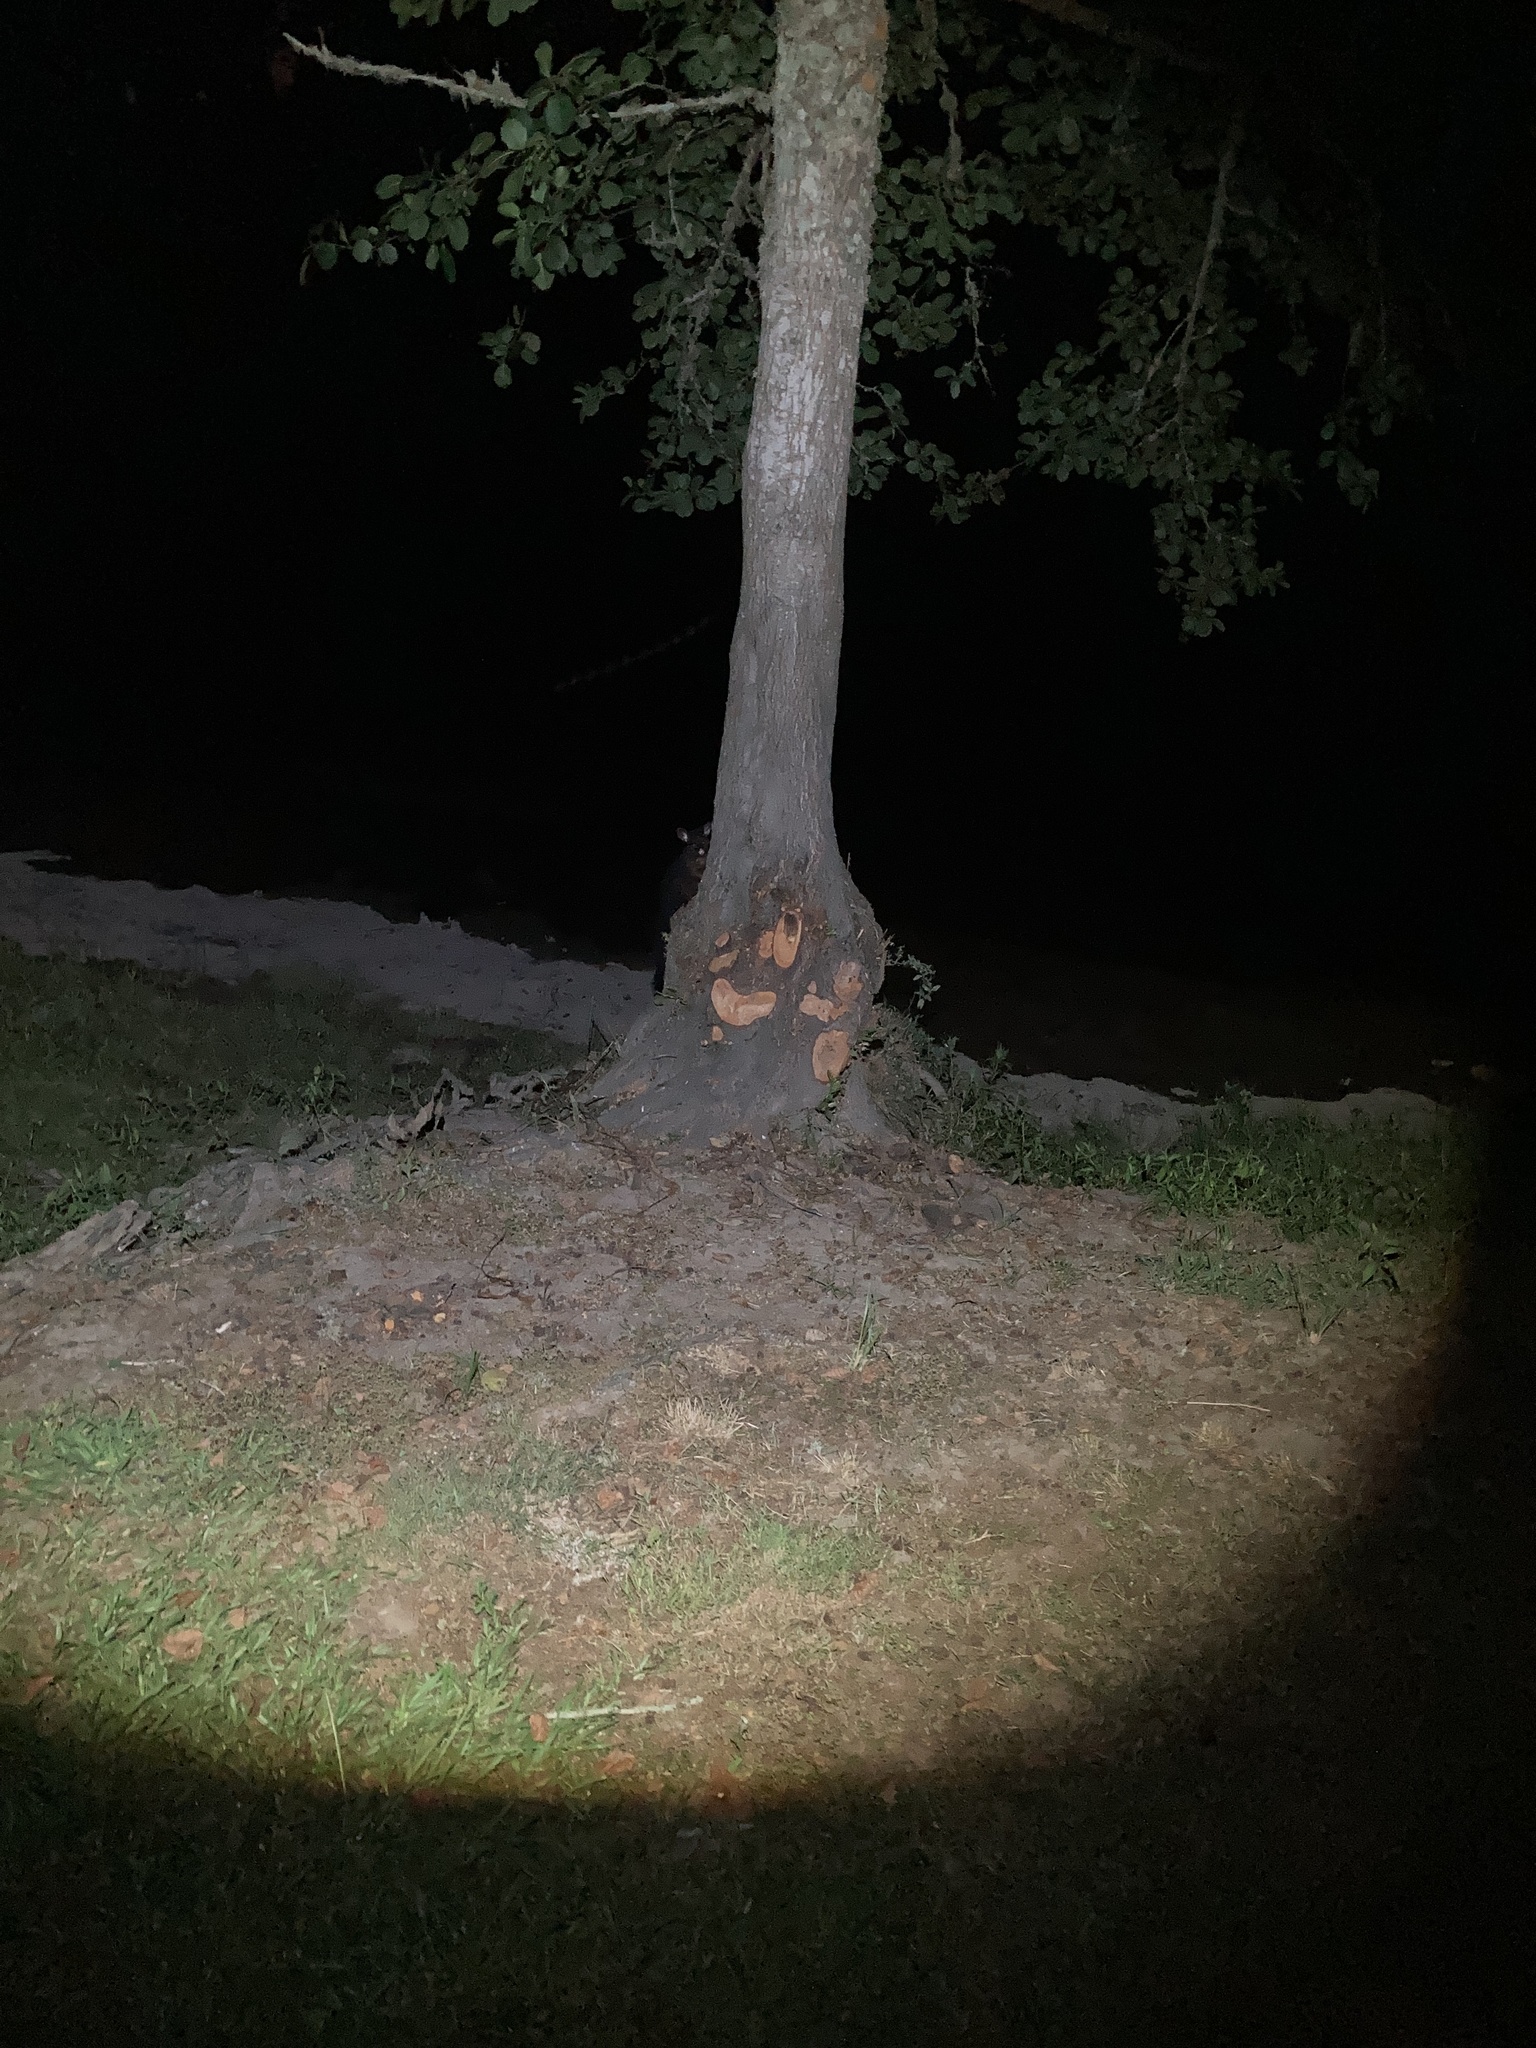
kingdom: Animalia
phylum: Chordata
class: Mammalia
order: Diprotodontia
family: Phalangeridae
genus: Trichosurus
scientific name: Trichosurus vulpecula
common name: Common brushtail
